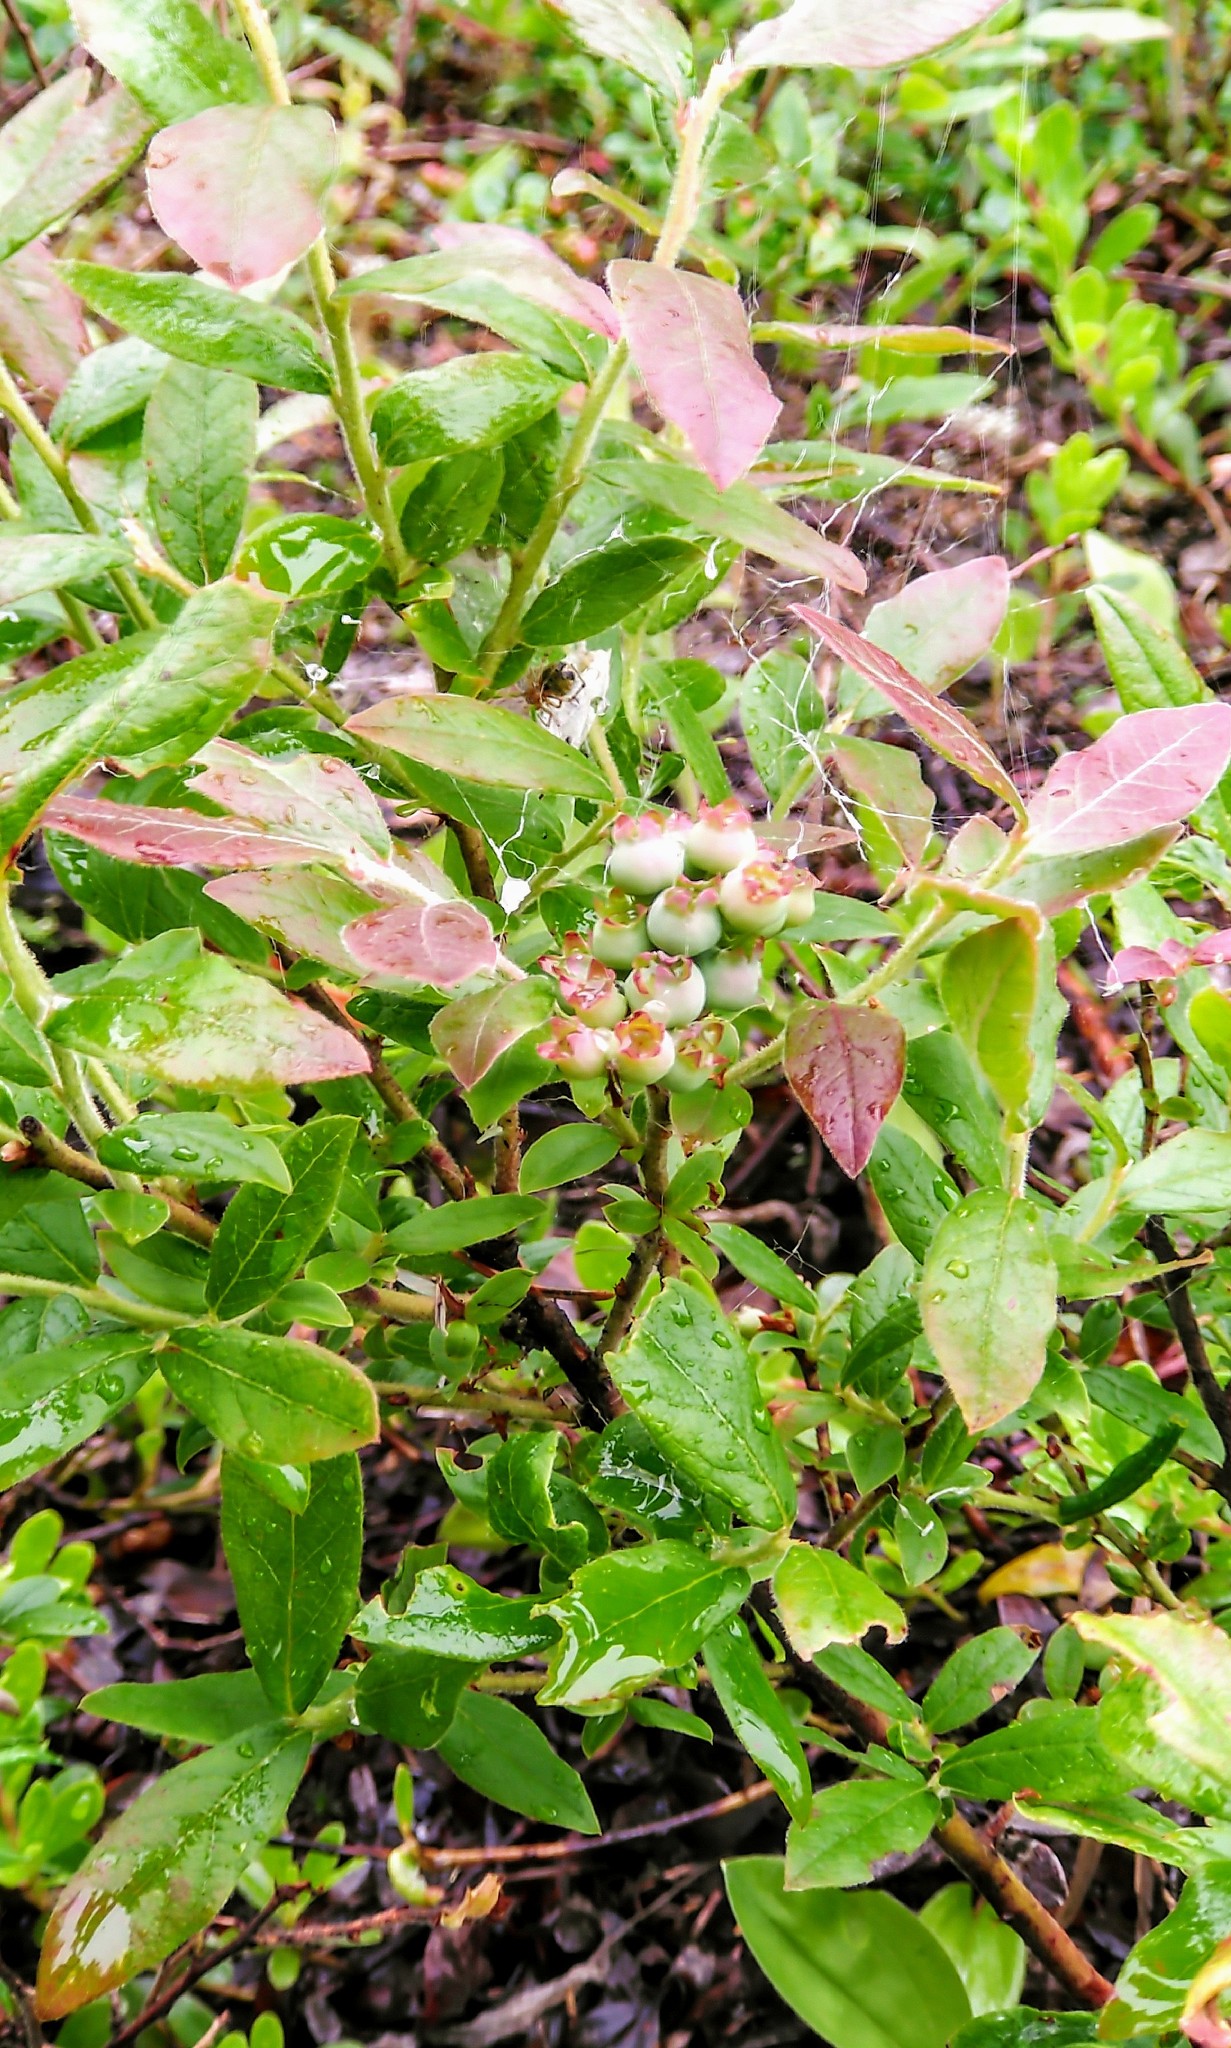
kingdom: Plantae
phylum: Tracheophyta
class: Magnoliopsida
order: Ericales
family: Ericaceae
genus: Vaccinium
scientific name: Vaccinium myrtilloides
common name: Canada blueberry
